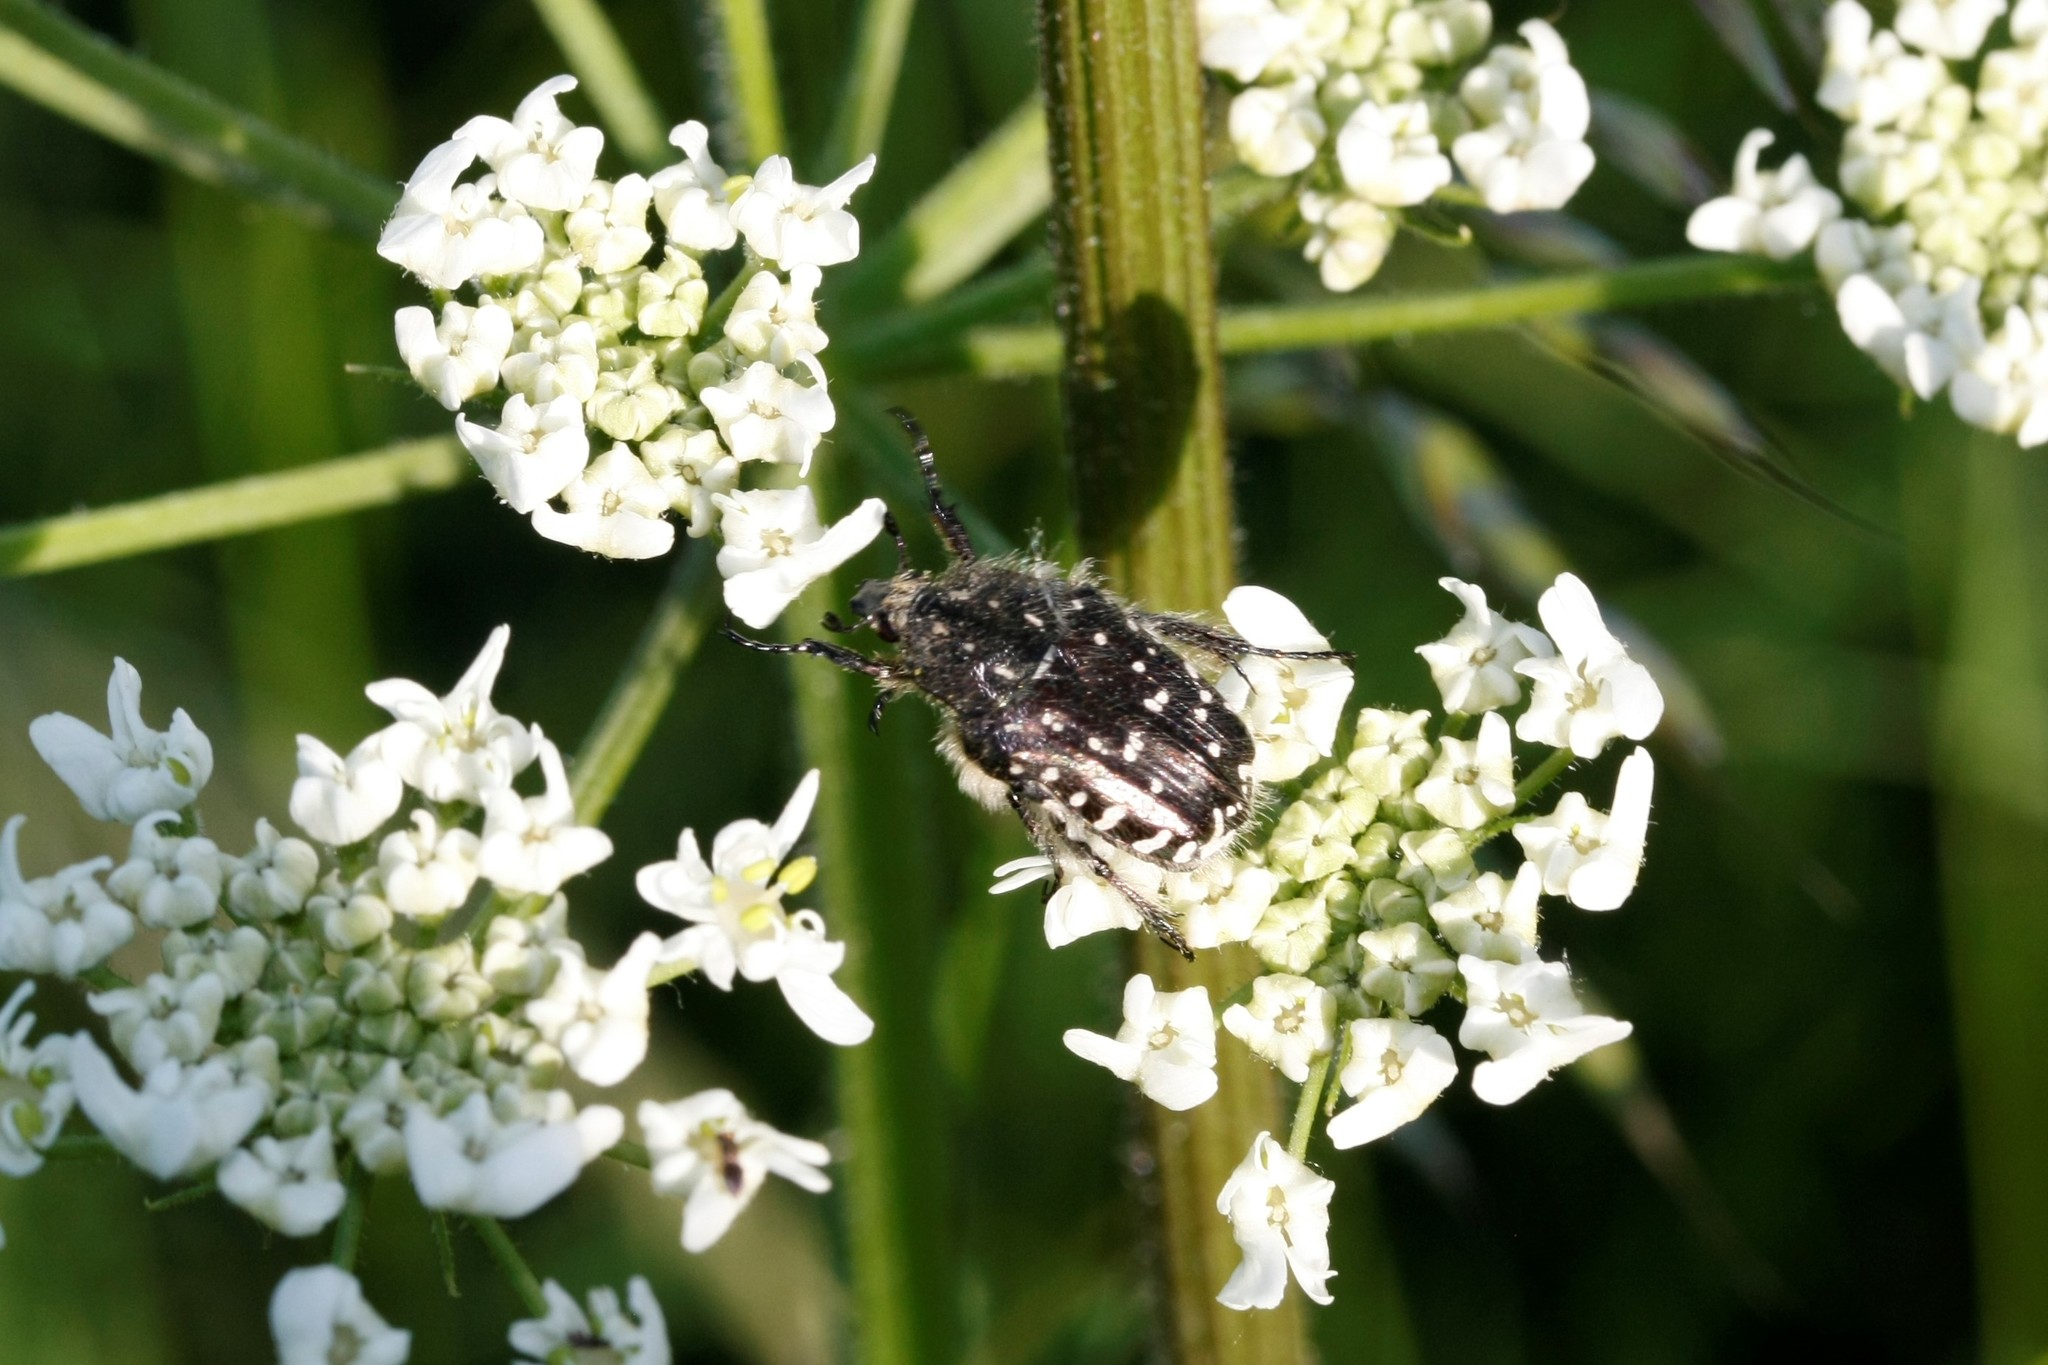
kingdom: Animalia
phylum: Arthropoda
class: Insecta
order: Coleoptera
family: Scarabaeidae
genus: Oxythyrea
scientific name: Oxythyrea funesta
